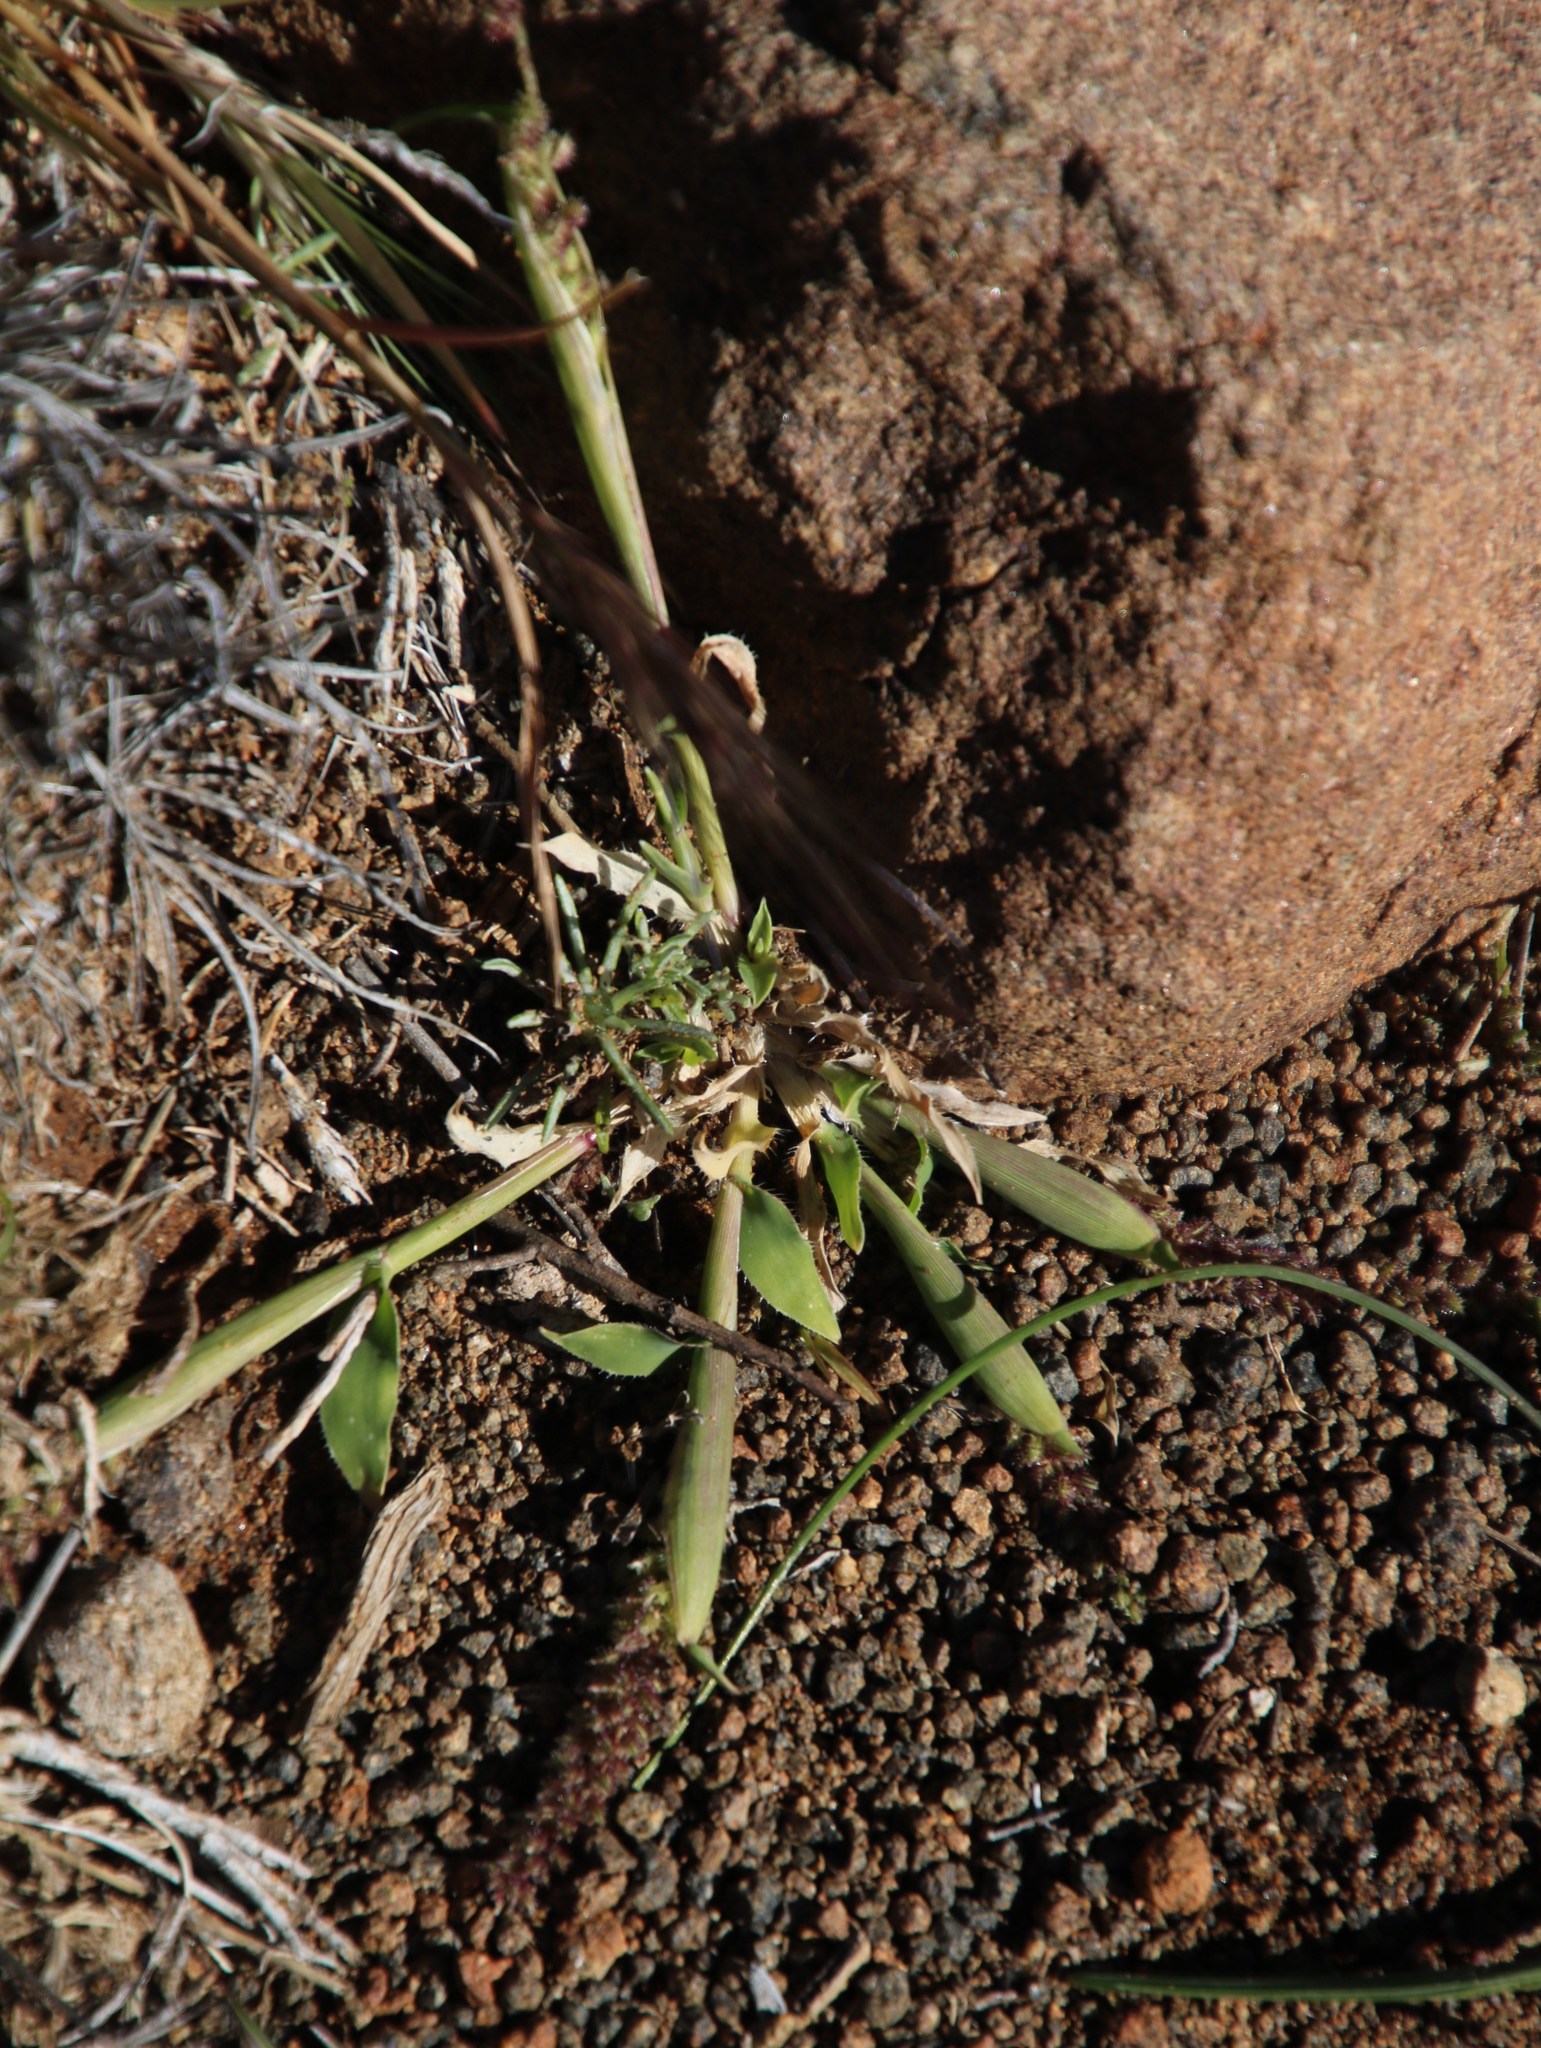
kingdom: Plantae
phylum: Tracheophyta
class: Liliopsida
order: Poales
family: Poaceae
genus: Tragus
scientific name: Tragus berteronianus
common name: African bur-grass
